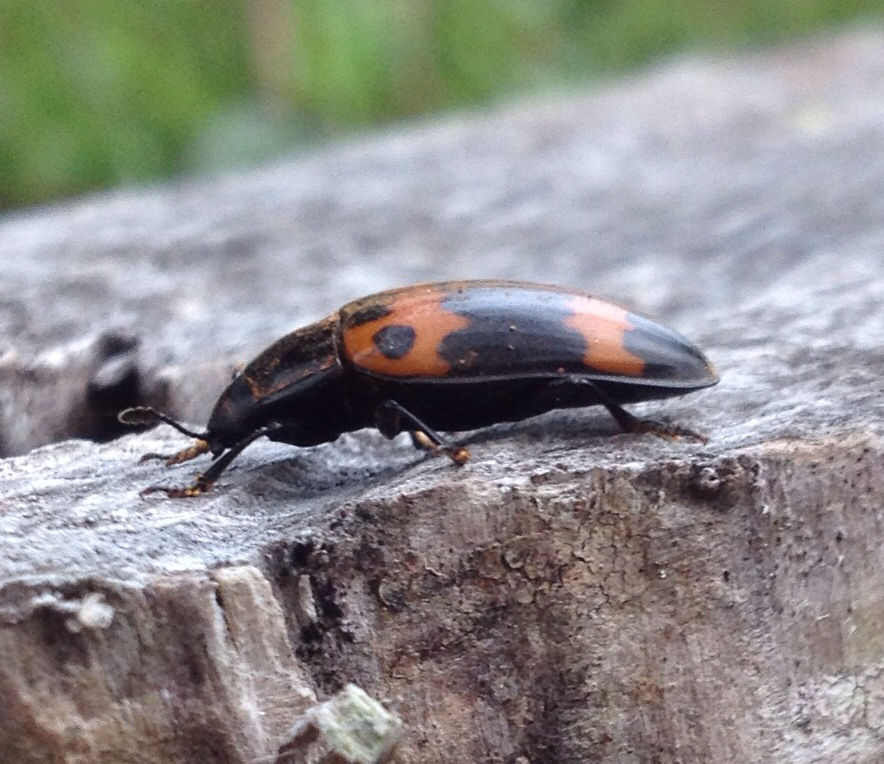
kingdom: Animalia
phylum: Arthropoda
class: Insecta
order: Coleoptera
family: Erotylidae
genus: Megalodacne
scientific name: Megalodacne fasciata
